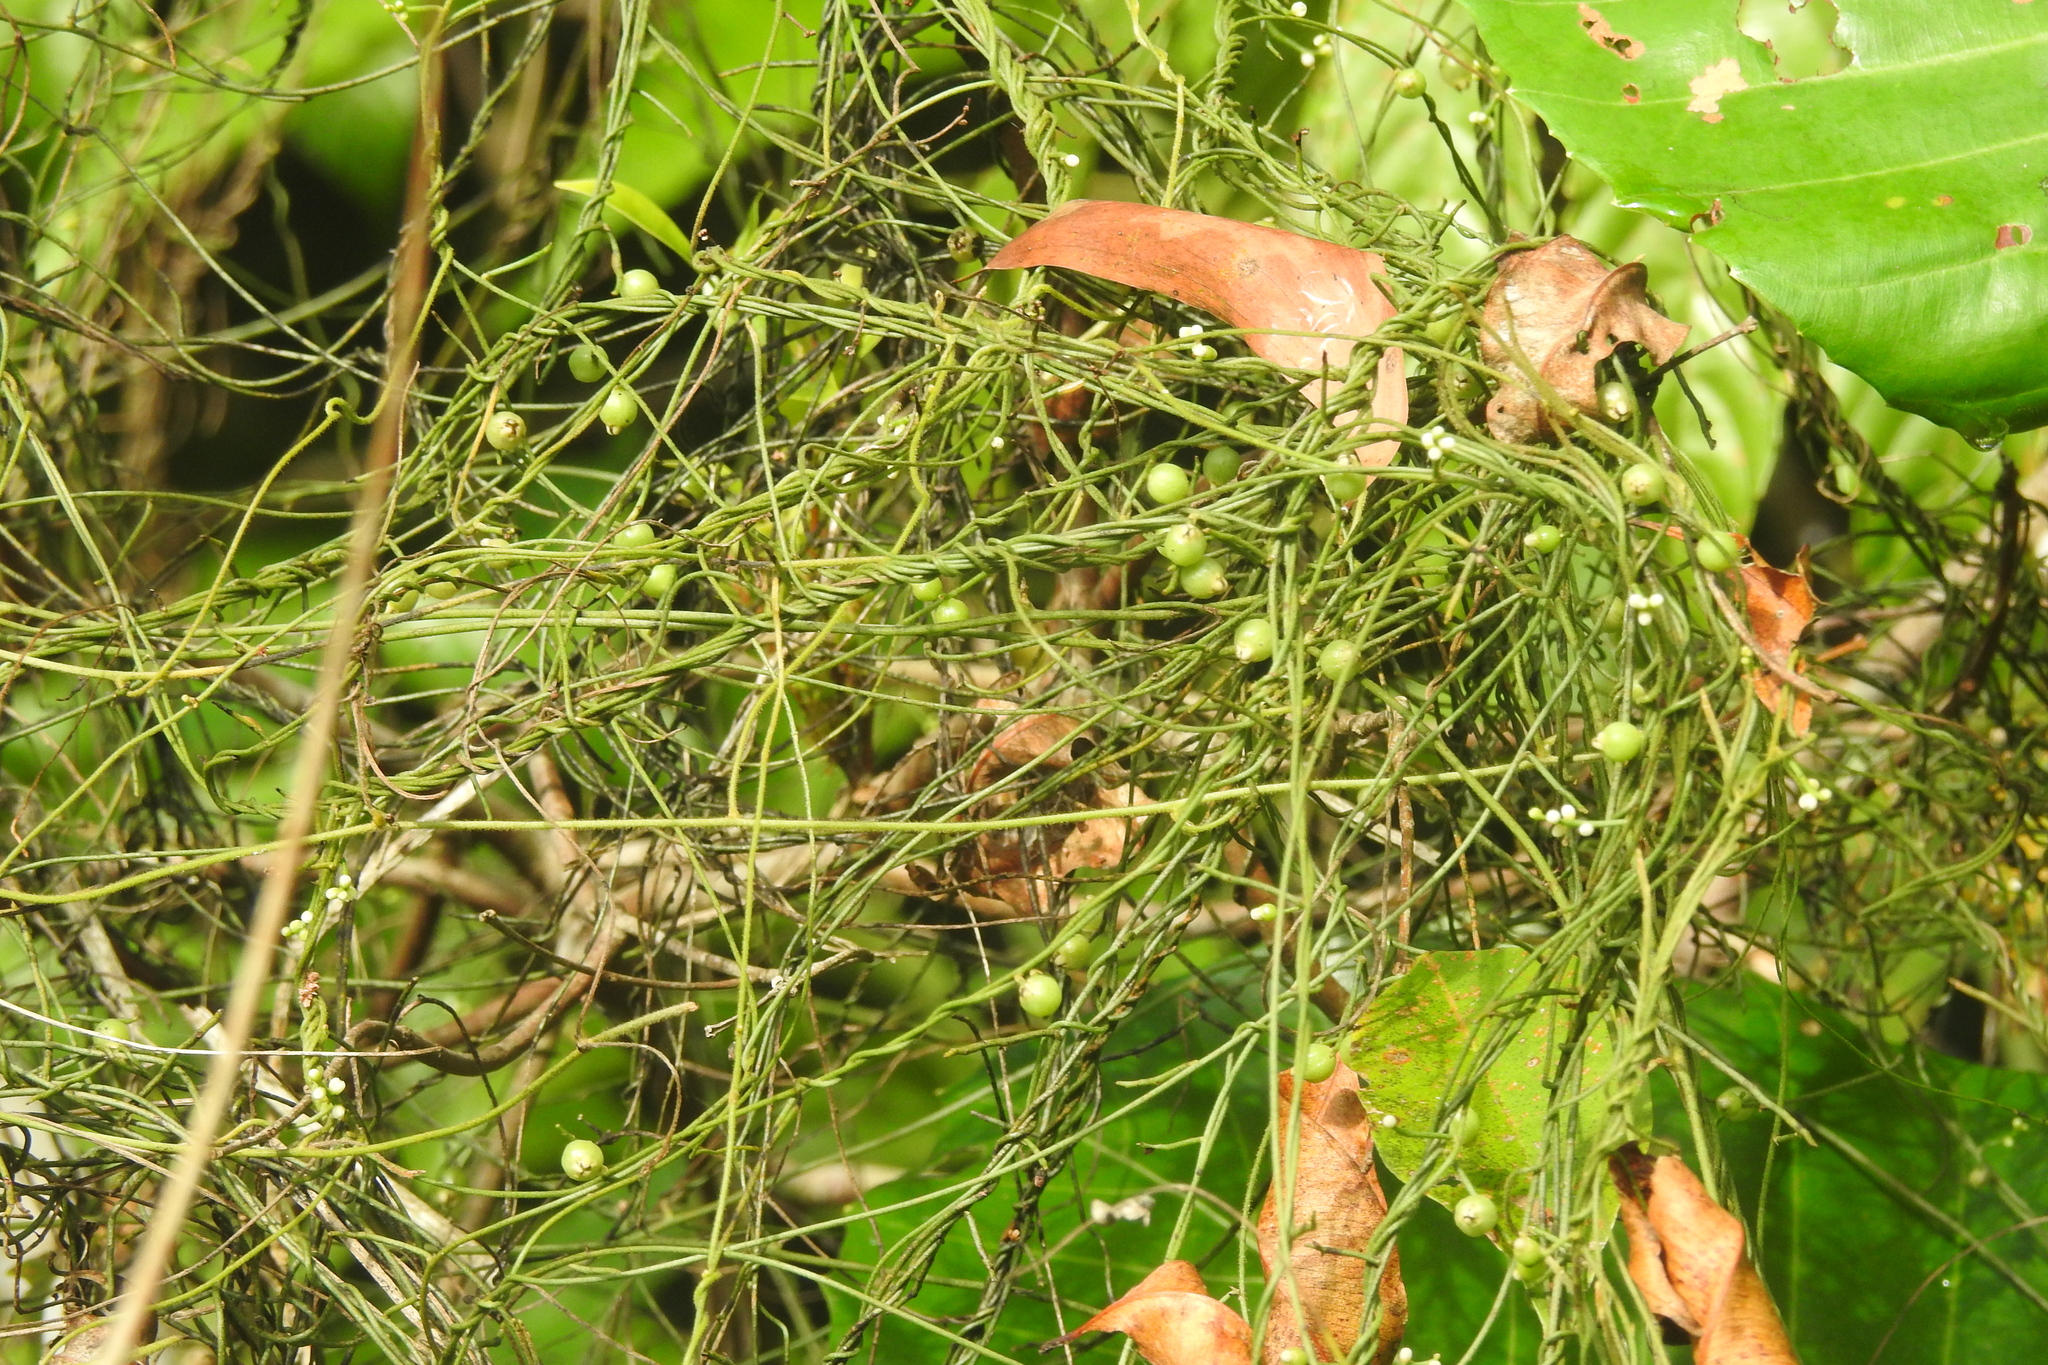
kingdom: Plantae
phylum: Tracheophyta
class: Magnoliopsida
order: Laurales
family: Lauraceae
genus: Cassytha
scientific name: Cassytha filiformis
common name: Dodder-laurel
